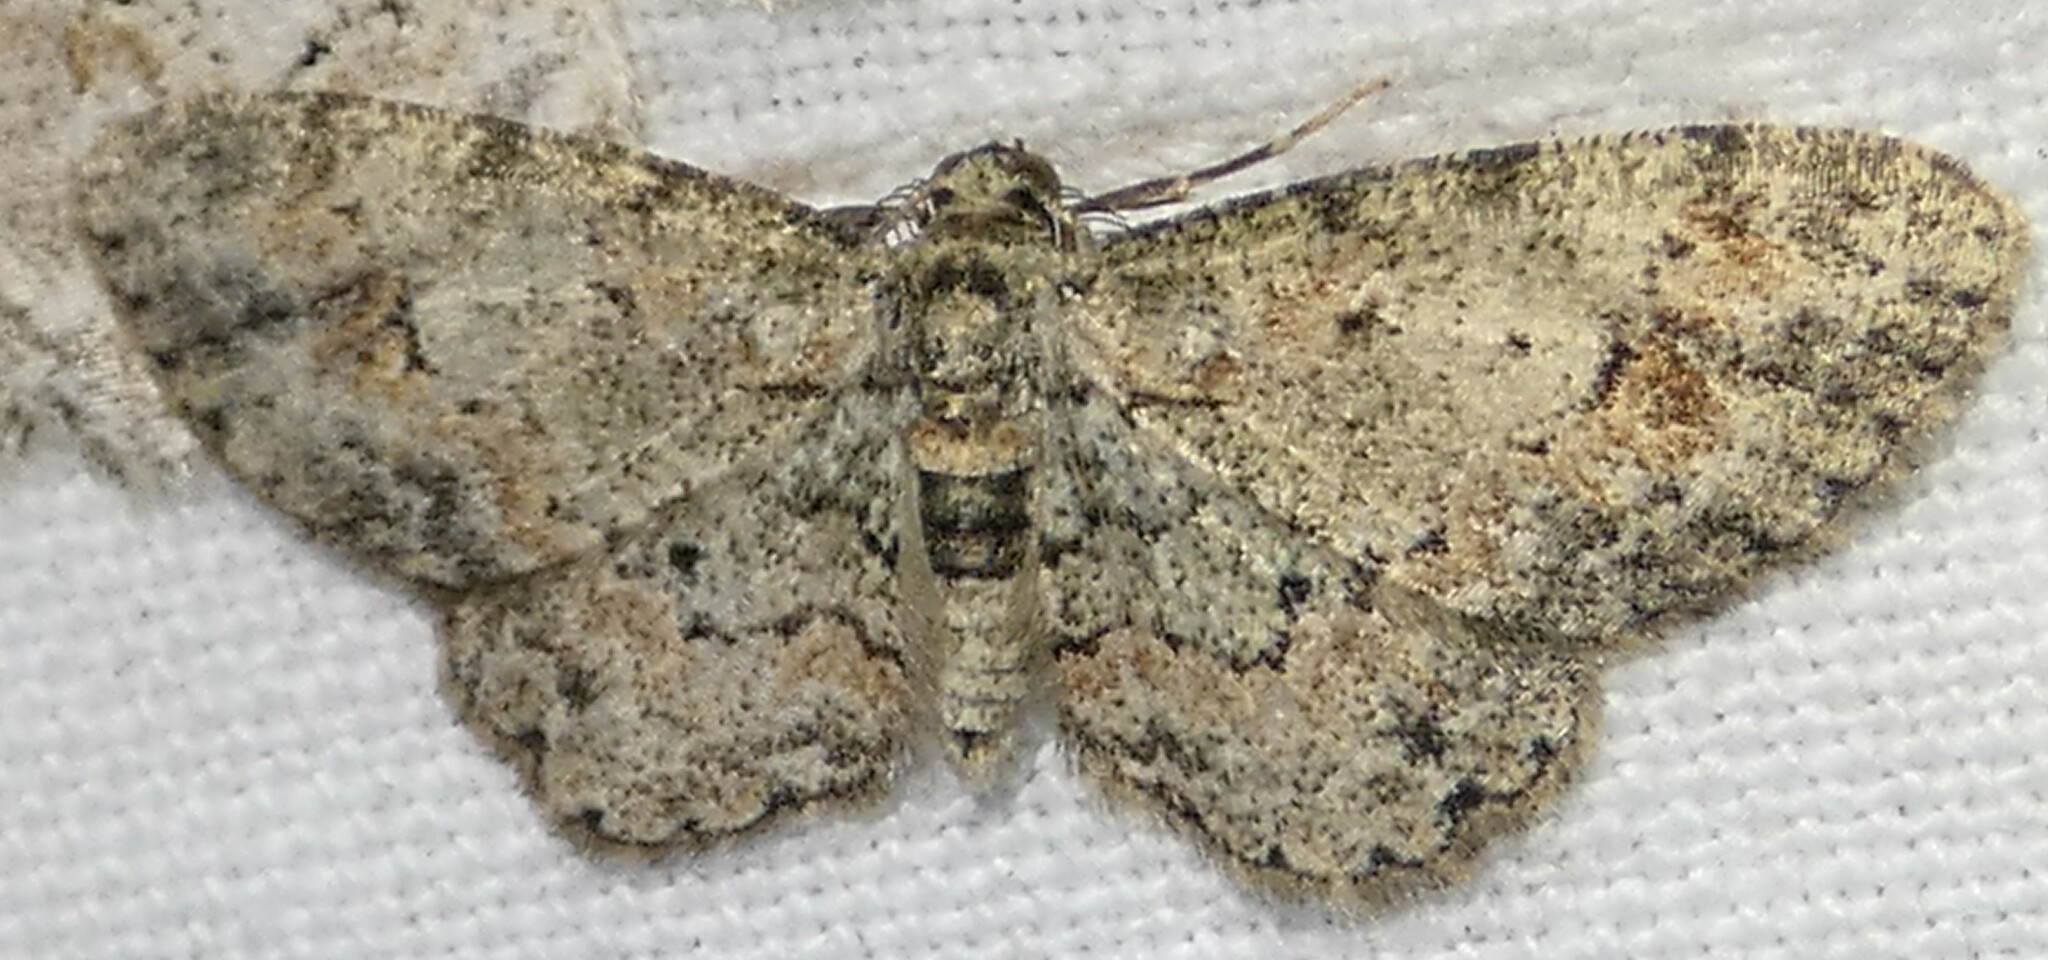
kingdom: Animalia
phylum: Arthropoda
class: Insecta
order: Lepidoptera
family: Geometridae
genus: Glenoides
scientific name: Glenoides texanaria
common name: Texas gray
